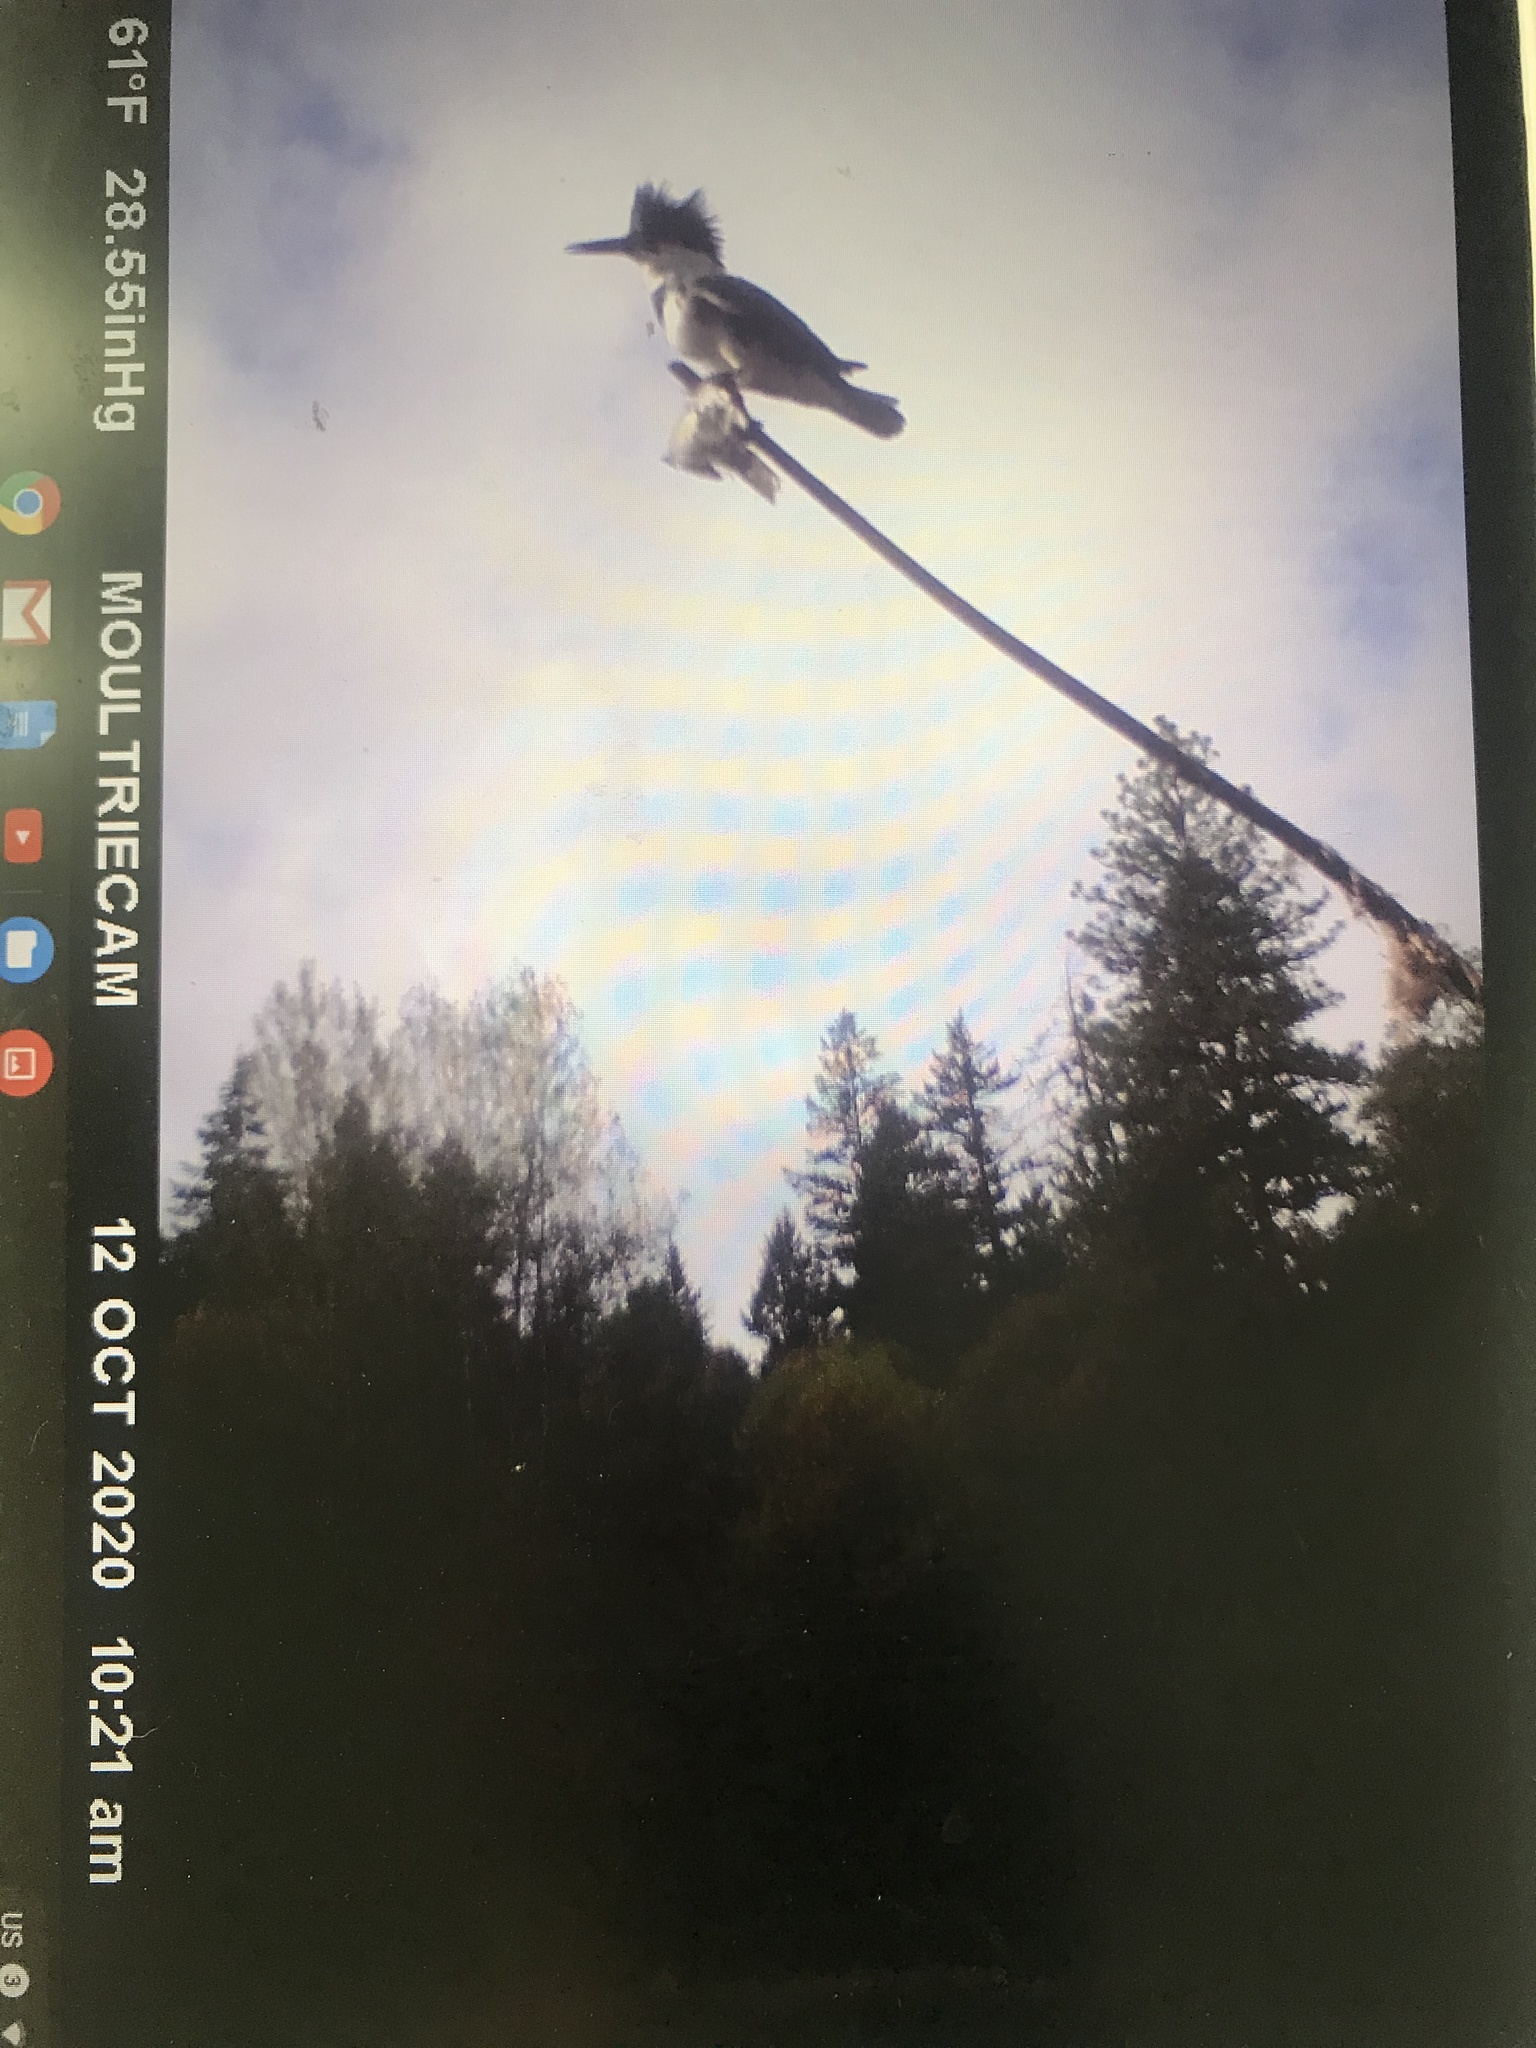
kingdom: Animalia
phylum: Chordata
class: Aves
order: Coraciiformes
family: Alcedinidae
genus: Megaceryle
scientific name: Megaceryle alcyon
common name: Belted kingfisher
